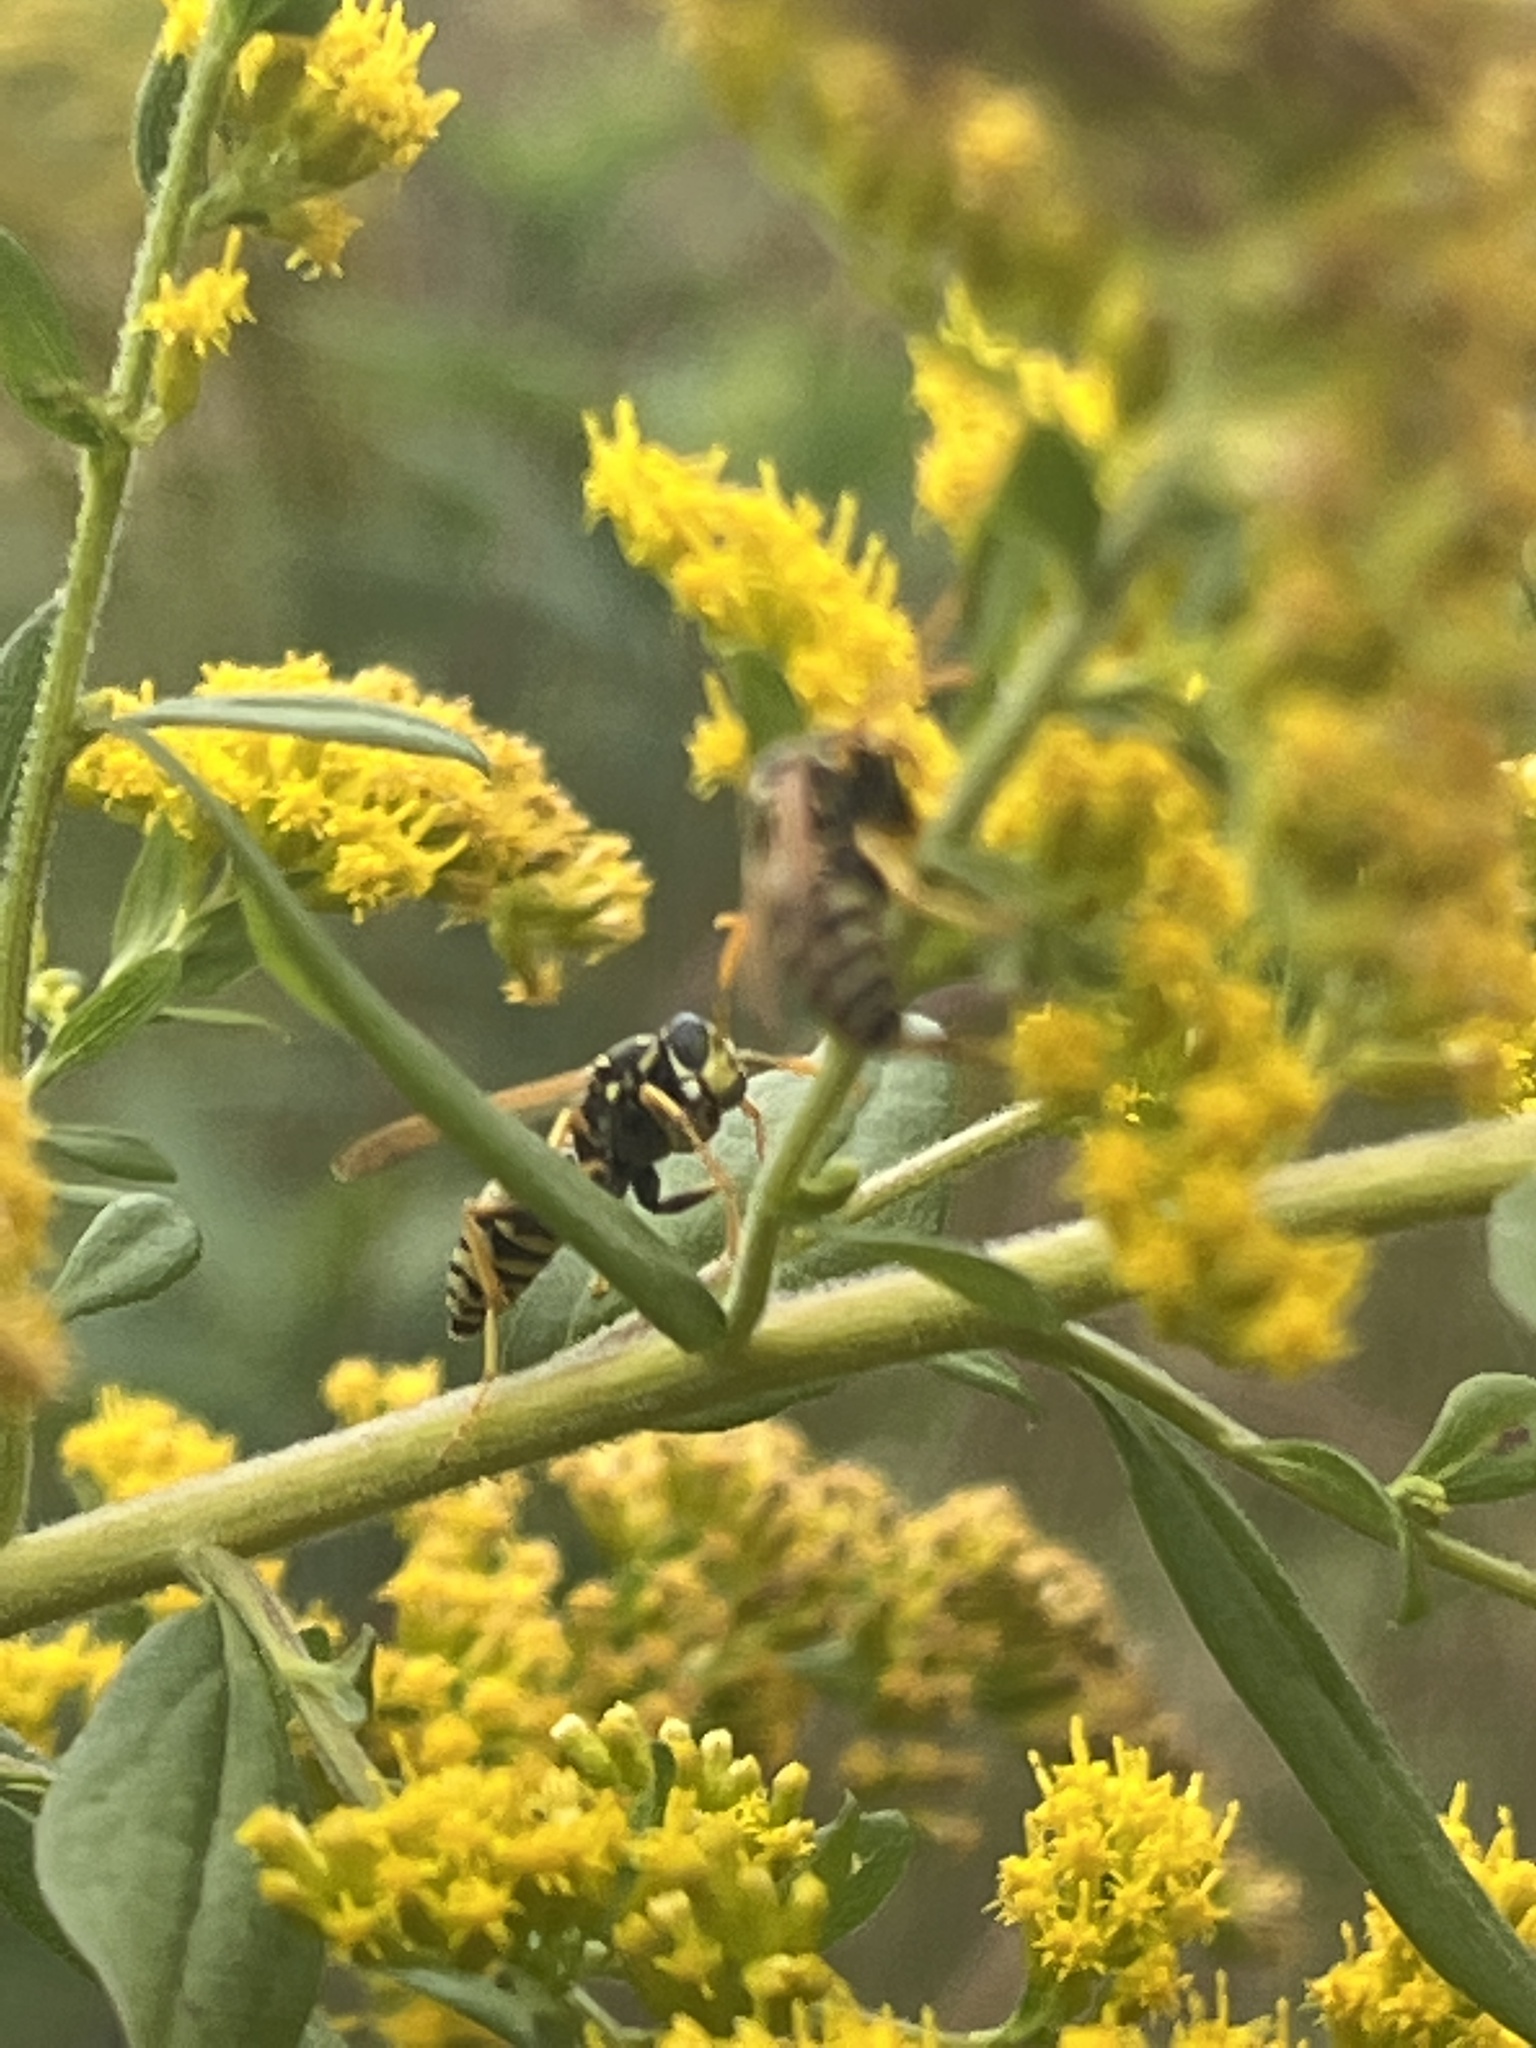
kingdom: Animalia
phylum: Arthropoda
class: Insecta
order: Hymenoptera
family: Eumenidae
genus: Polistes
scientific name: Polistes dominula
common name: Paper wasp
